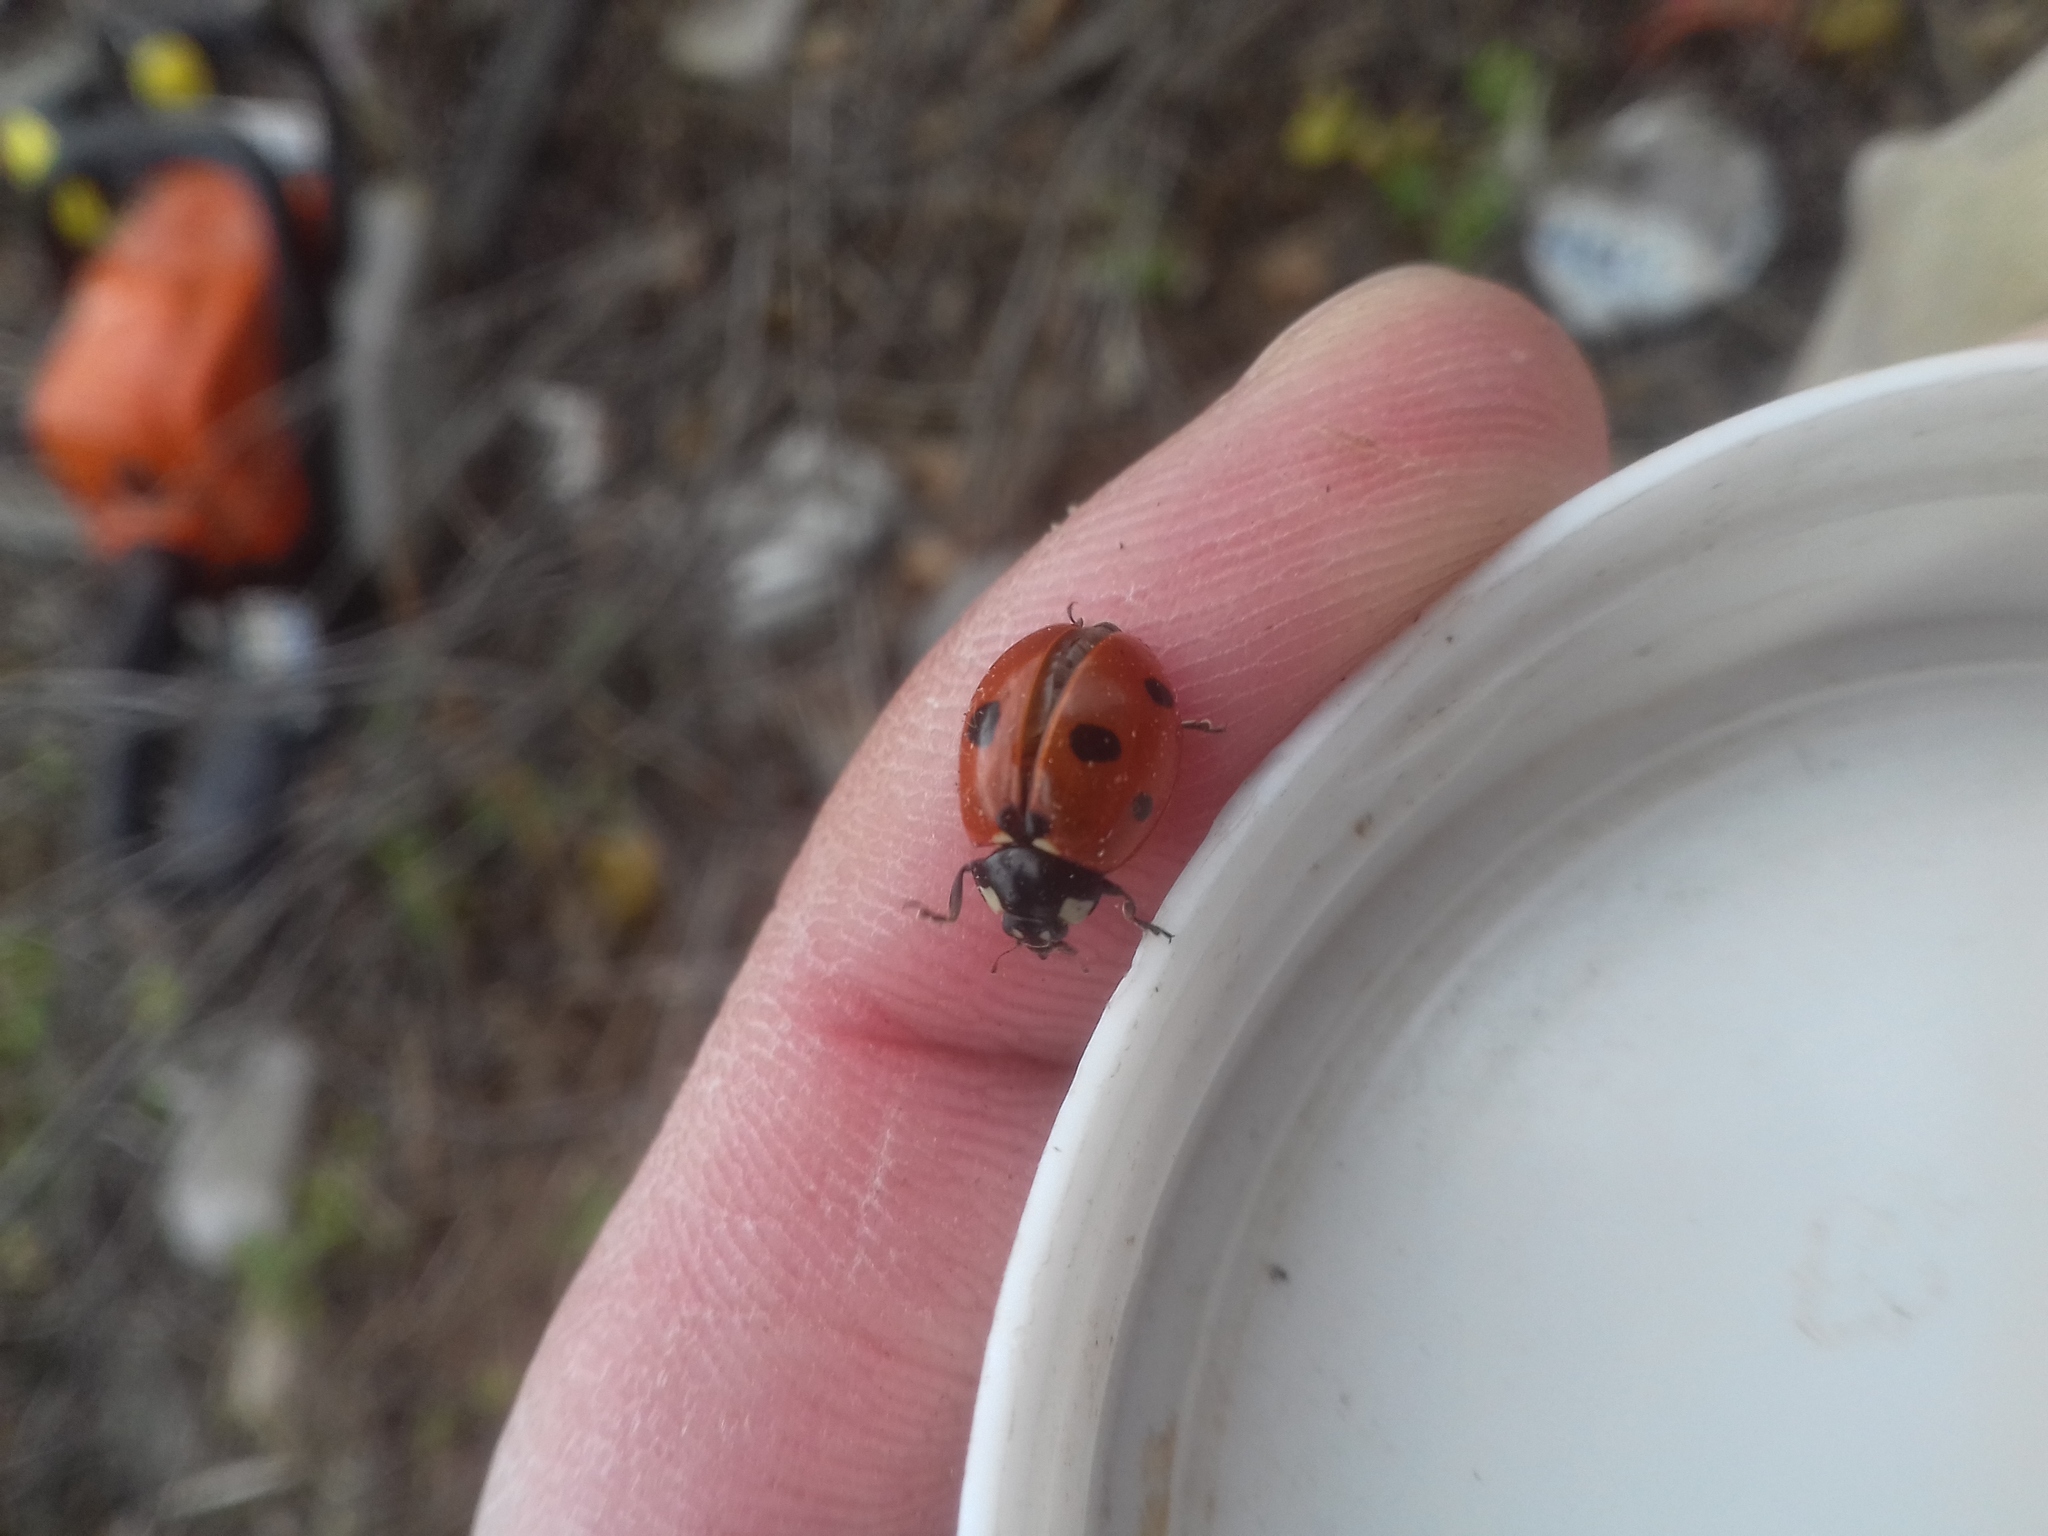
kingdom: Animalia
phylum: Arthropoda
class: Insecta
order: Coleoptera
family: Coccinellidae
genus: Coccinella
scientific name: Coccinella septempunctata
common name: Sevenspotted lady beetle
